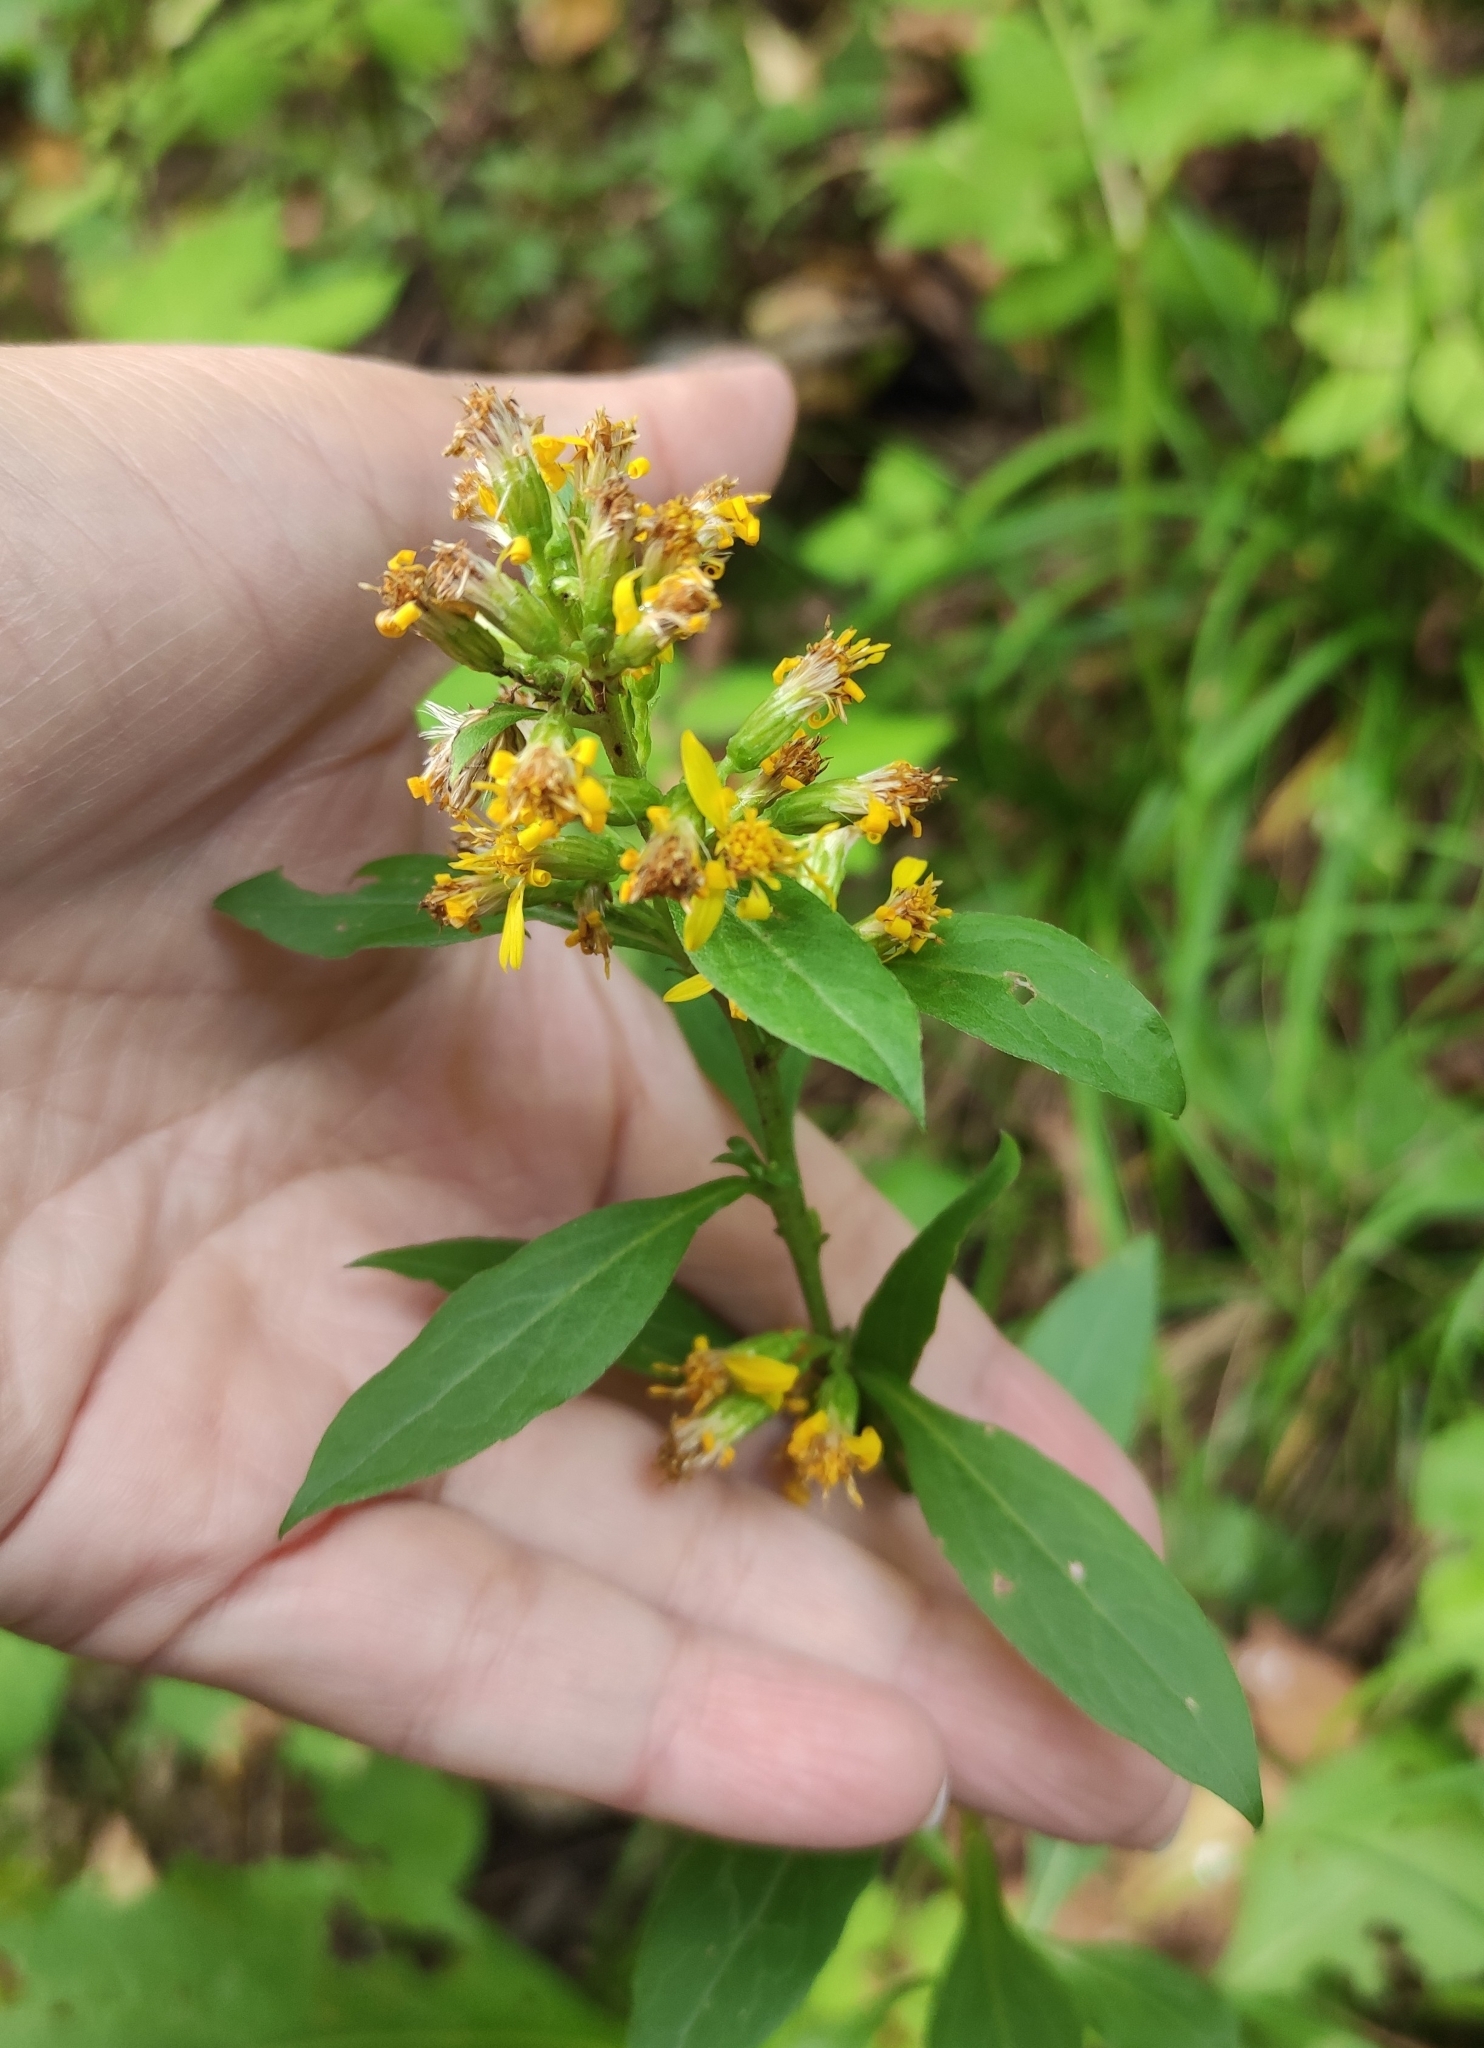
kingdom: Plantae
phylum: Tracheophyta
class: Magnoliopsida
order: Asterales
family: Asteraceae
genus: Solidago
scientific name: Solidago virgaurea
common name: Goldenrod
